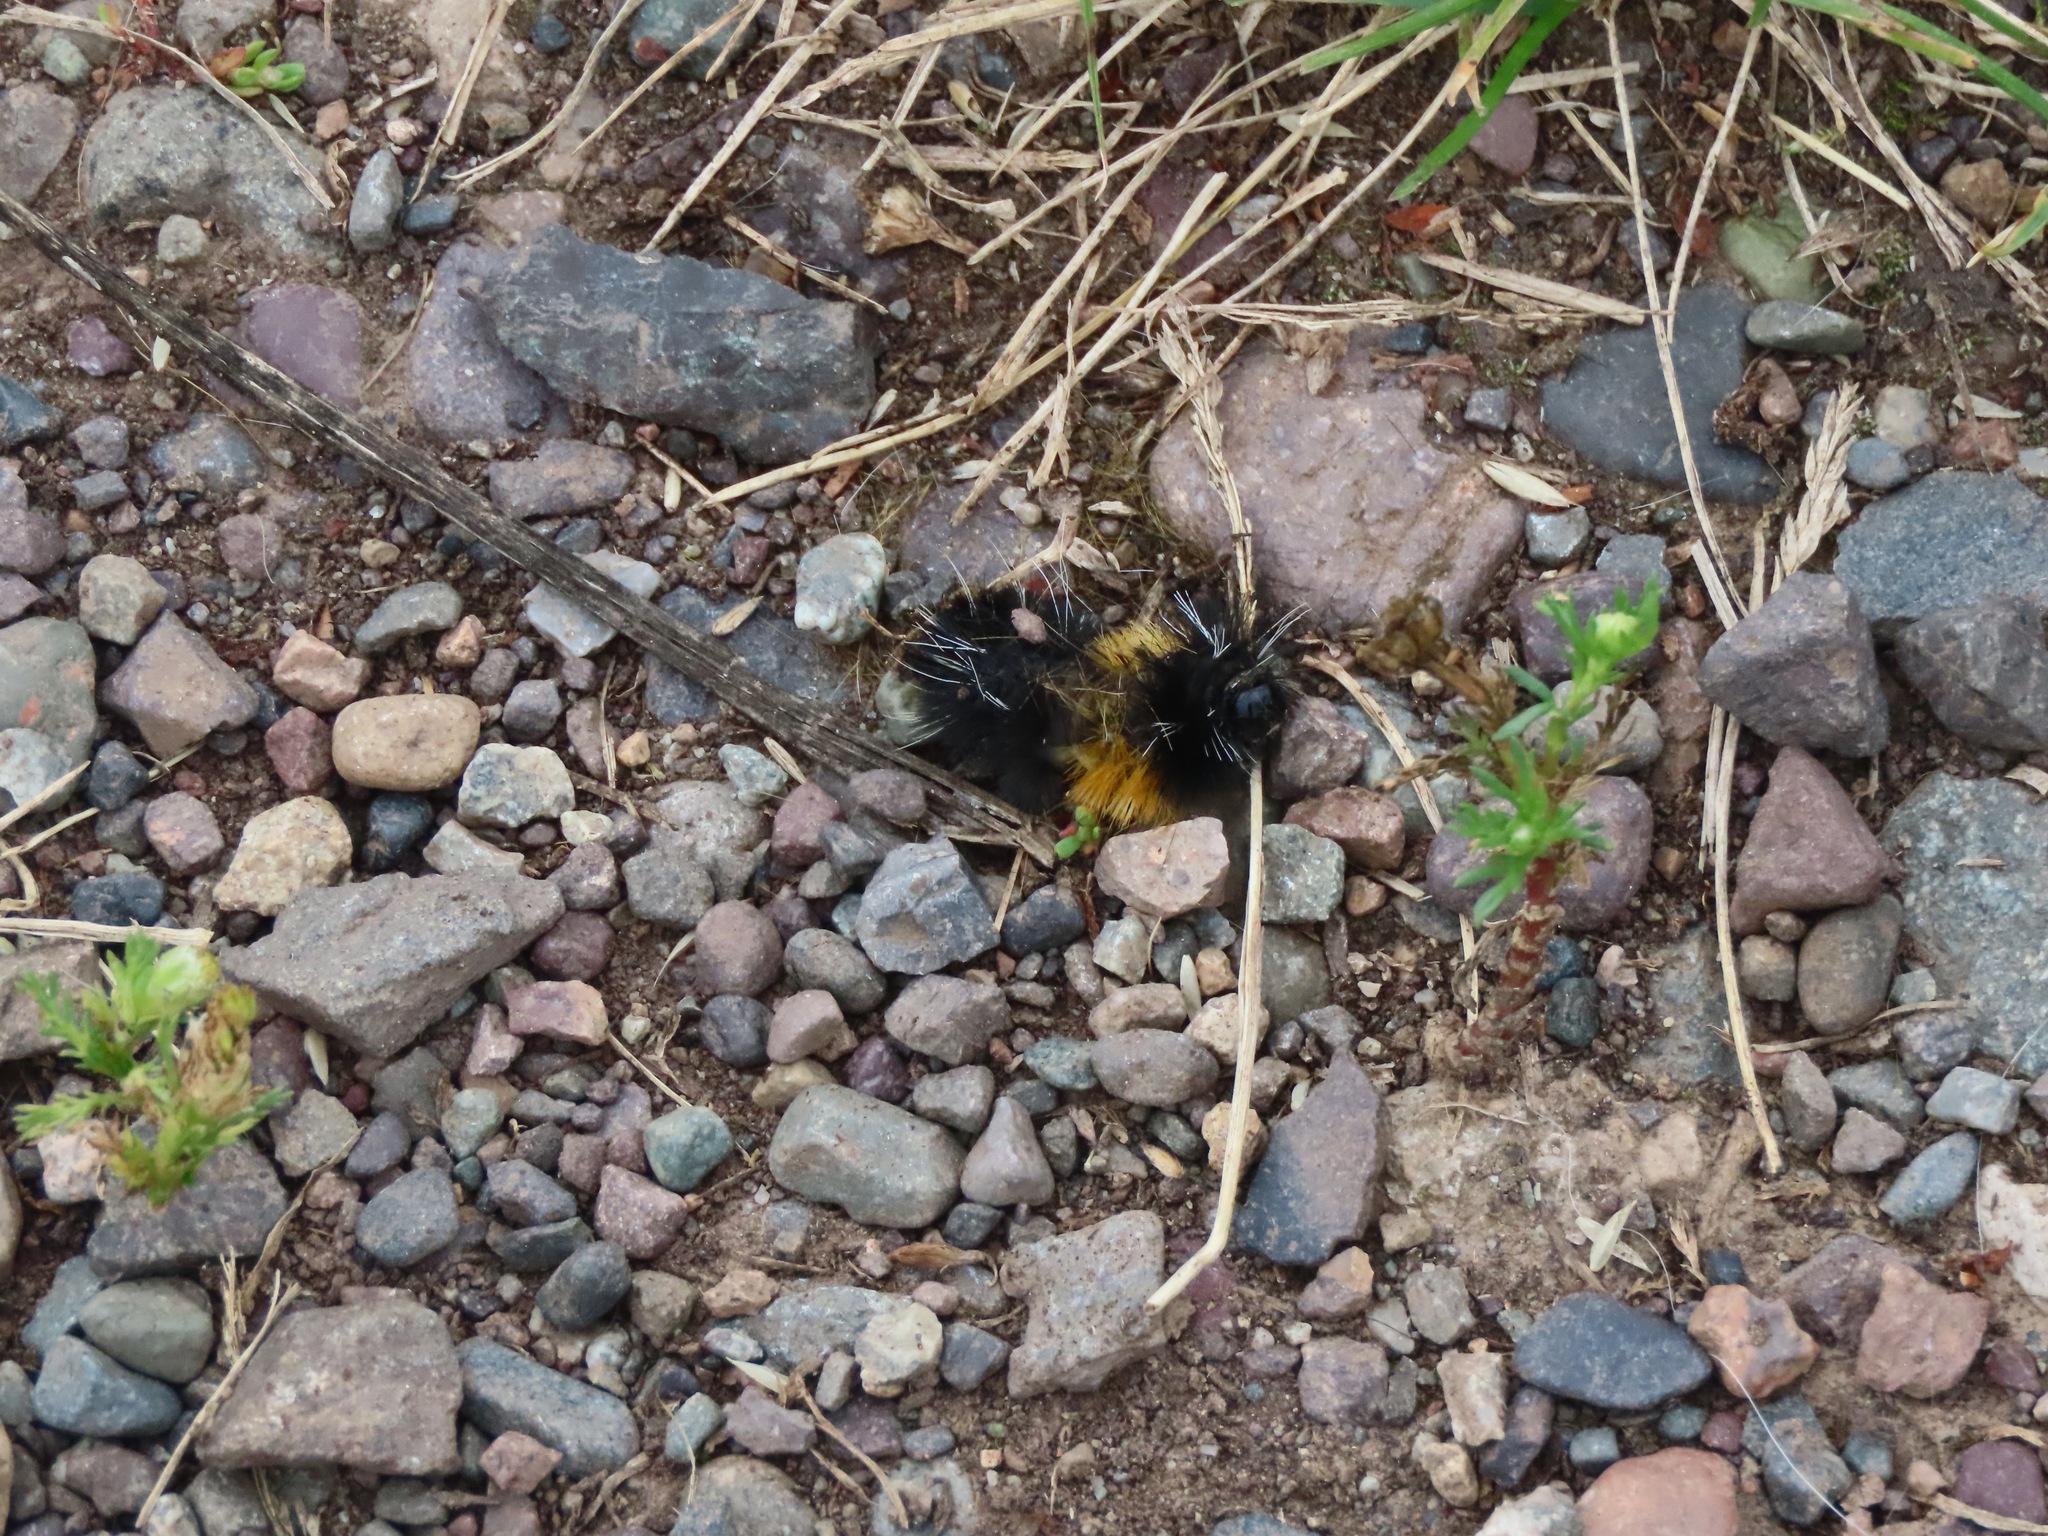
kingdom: Animalia
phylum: Arthropoda
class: Insecta
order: Lepidoptera
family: Erebidae
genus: Lophocampa
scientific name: Lophocampa maculata
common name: Spotted tussock moth
